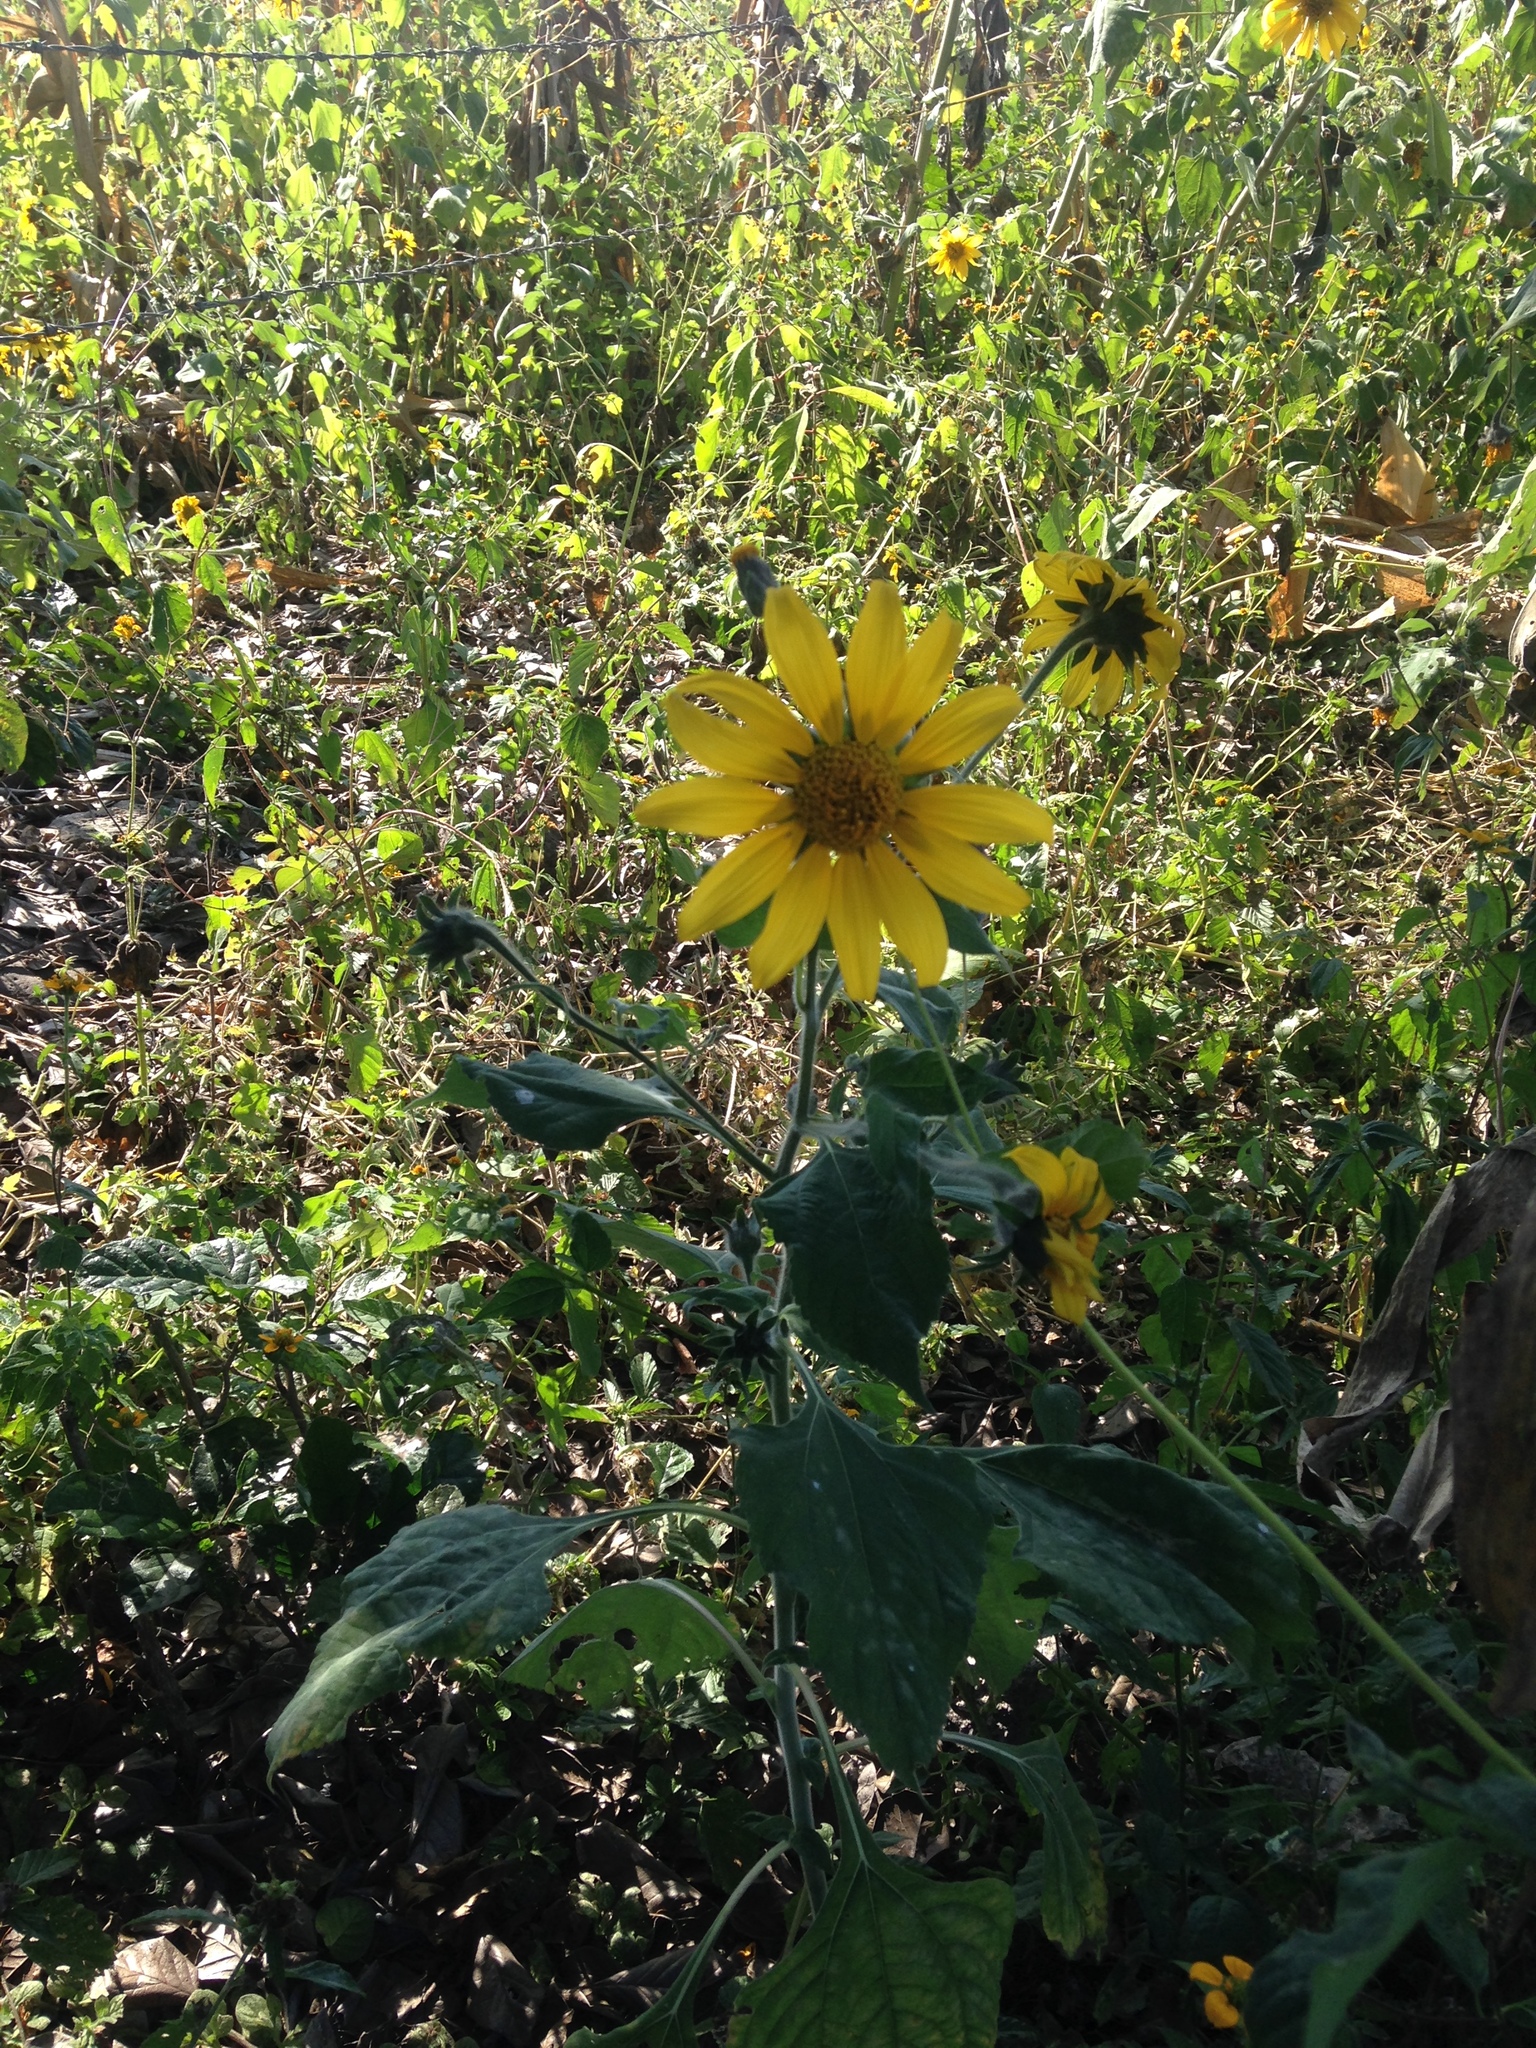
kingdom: Plantae
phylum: Tracheophyta
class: Magnoliopsida
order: Asterales
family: Asteraceae
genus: Tithonia
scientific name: Tithonia tubaeformis
